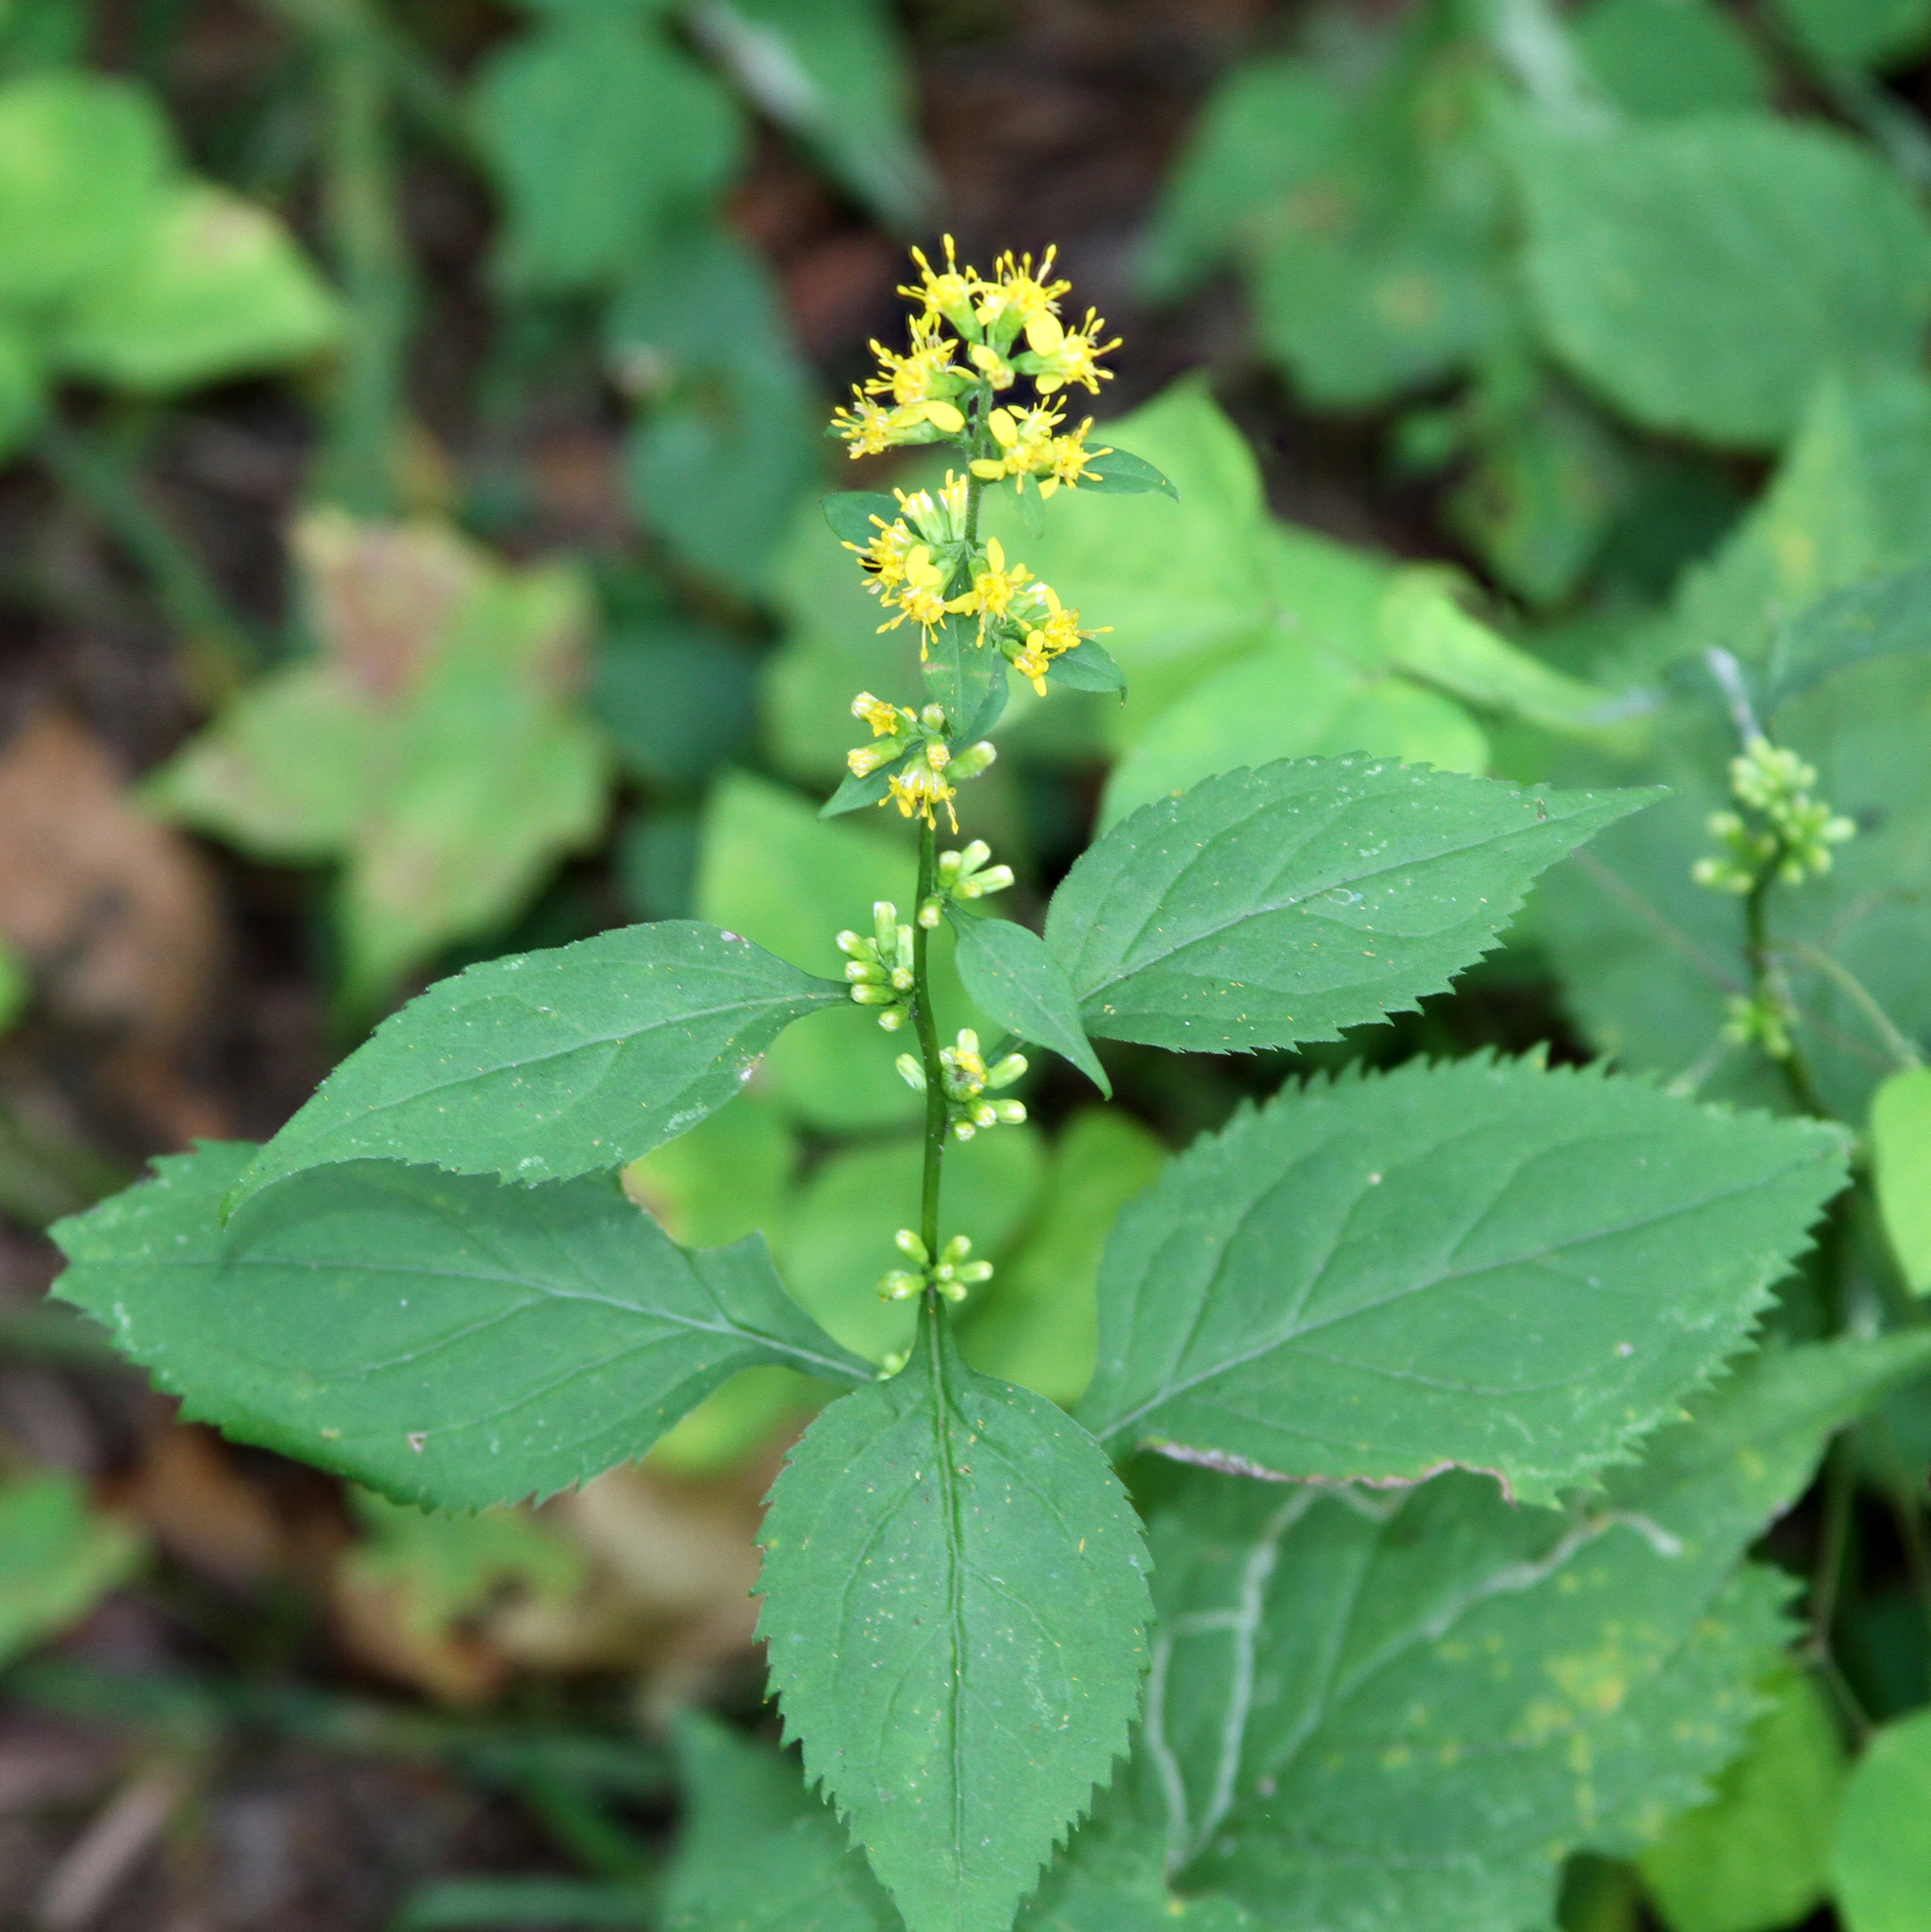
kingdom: Plantae
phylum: Tracheophyta
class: Magnoliopsida
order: Asterales
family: Asteraceae
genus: Solidago
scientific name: Solidago flexicaulis
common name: Zig-zag goldenrod
